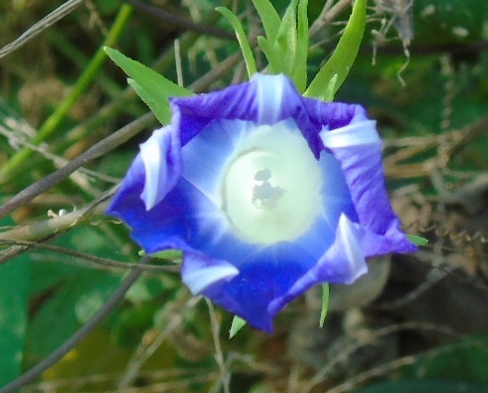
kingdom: Plantae
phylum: Tracheophyta
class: Magnoliopsida
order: Solanales
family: Convolvulaceae
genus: Ipomoea
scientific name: Ipomoea indica
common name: Blue dawnflower
